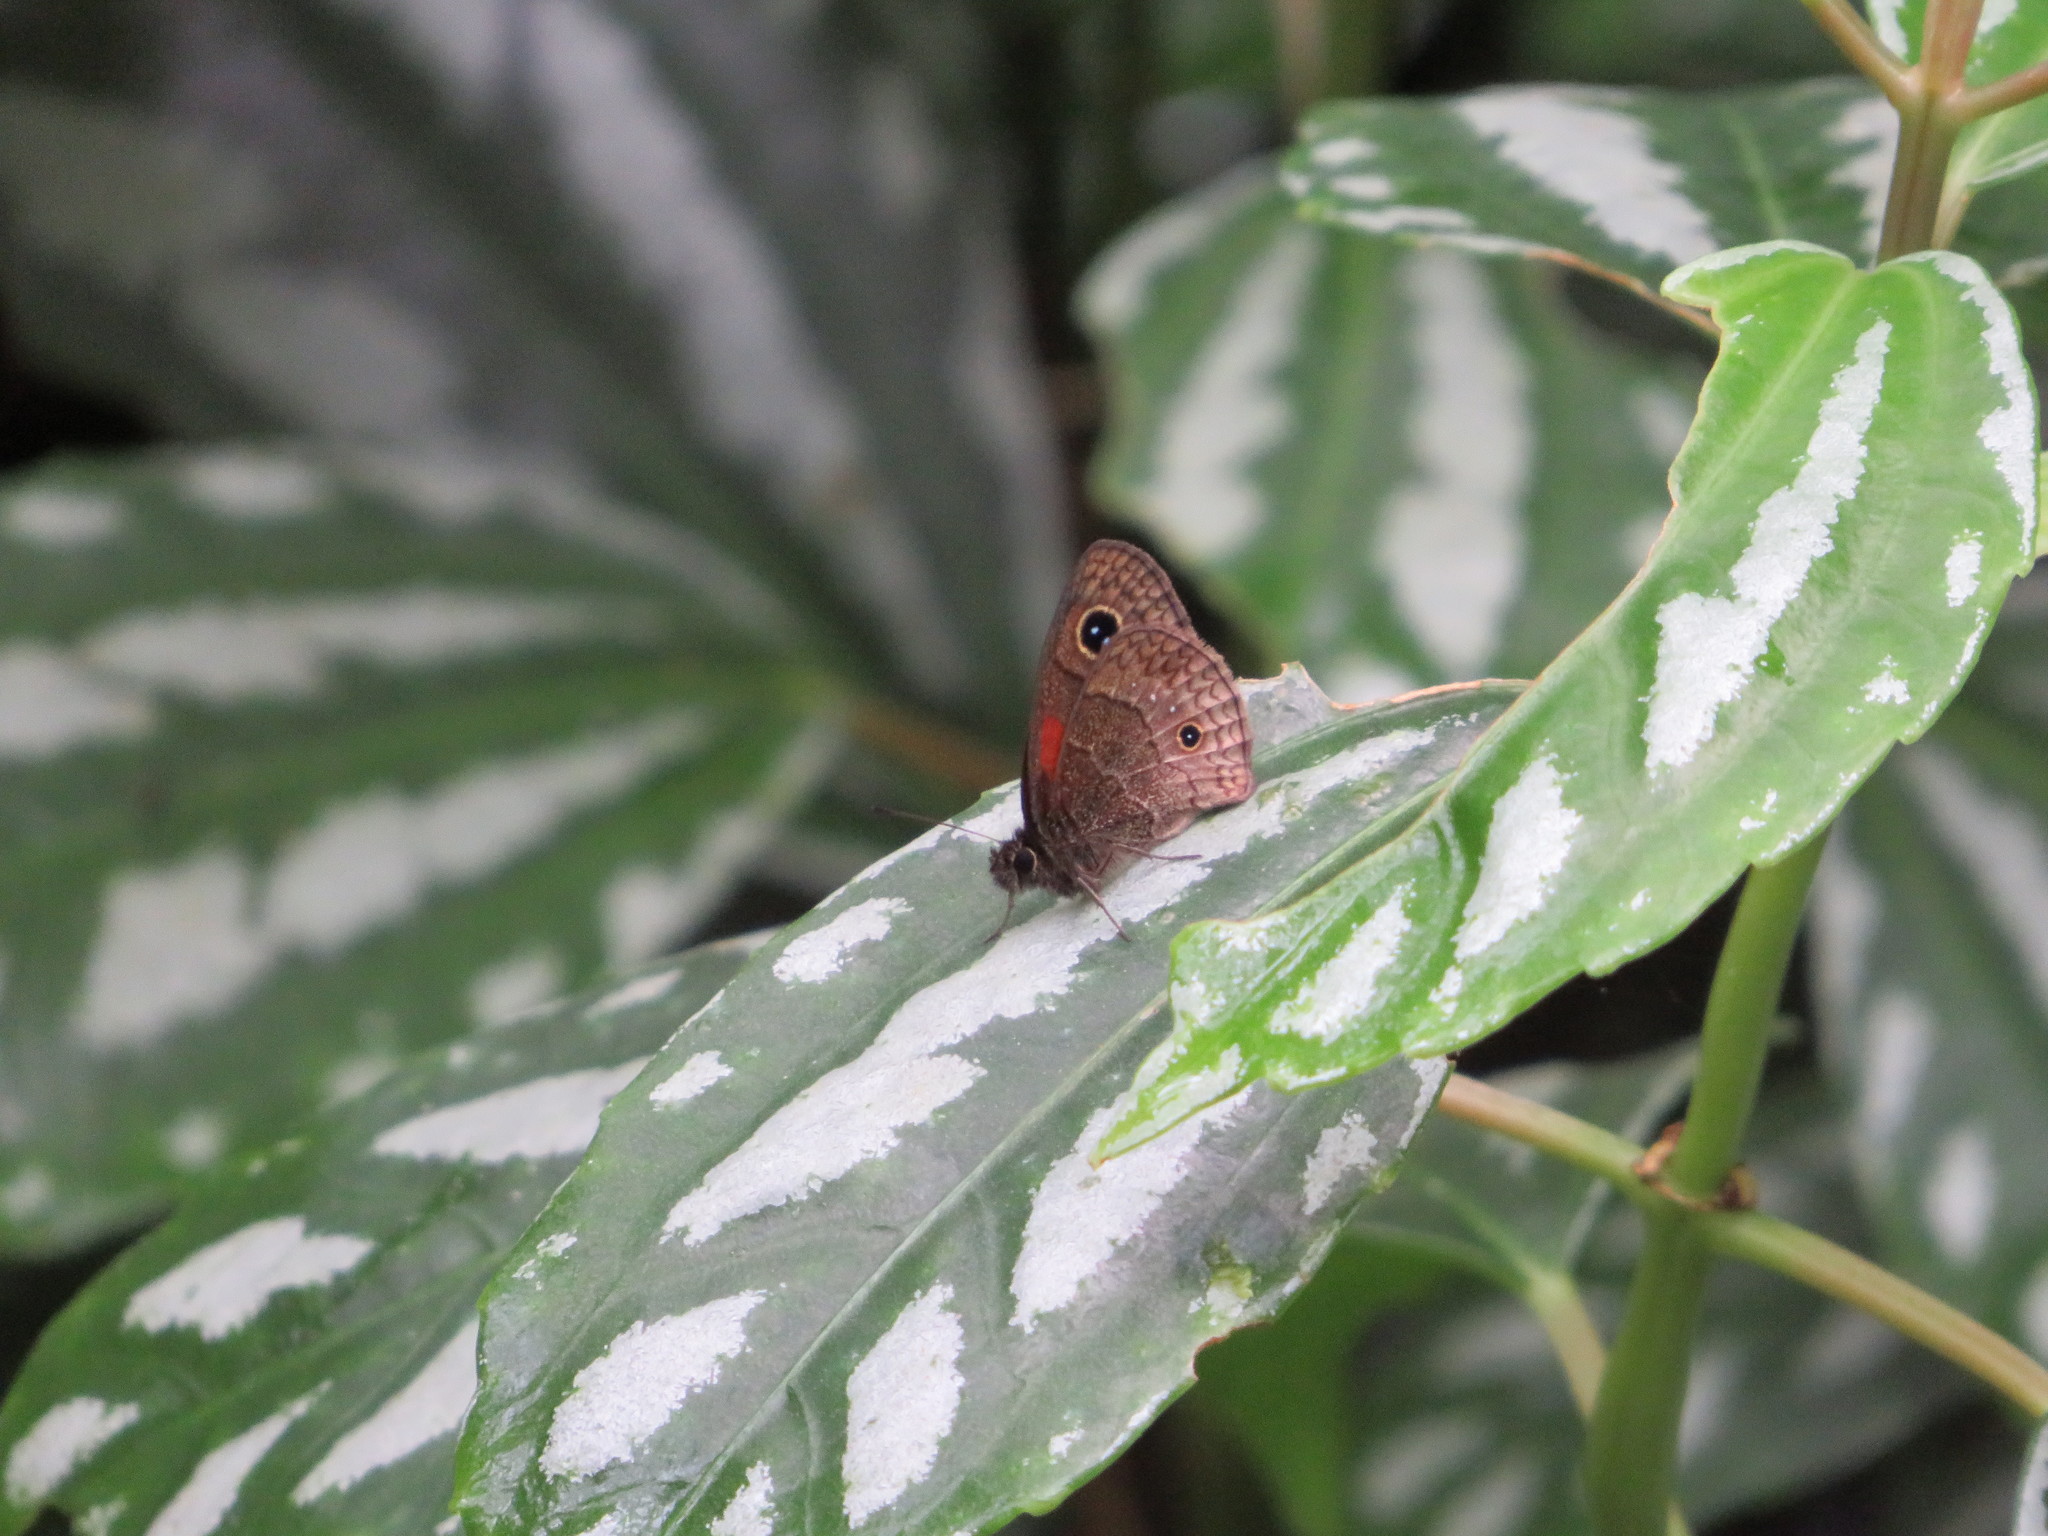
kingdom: Animalia
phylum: Arthropoda
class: Insecta
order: Lepidoptera
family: Nymphalidae
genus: Calisto
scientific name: Calisto obscura
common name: Obscure calisto
